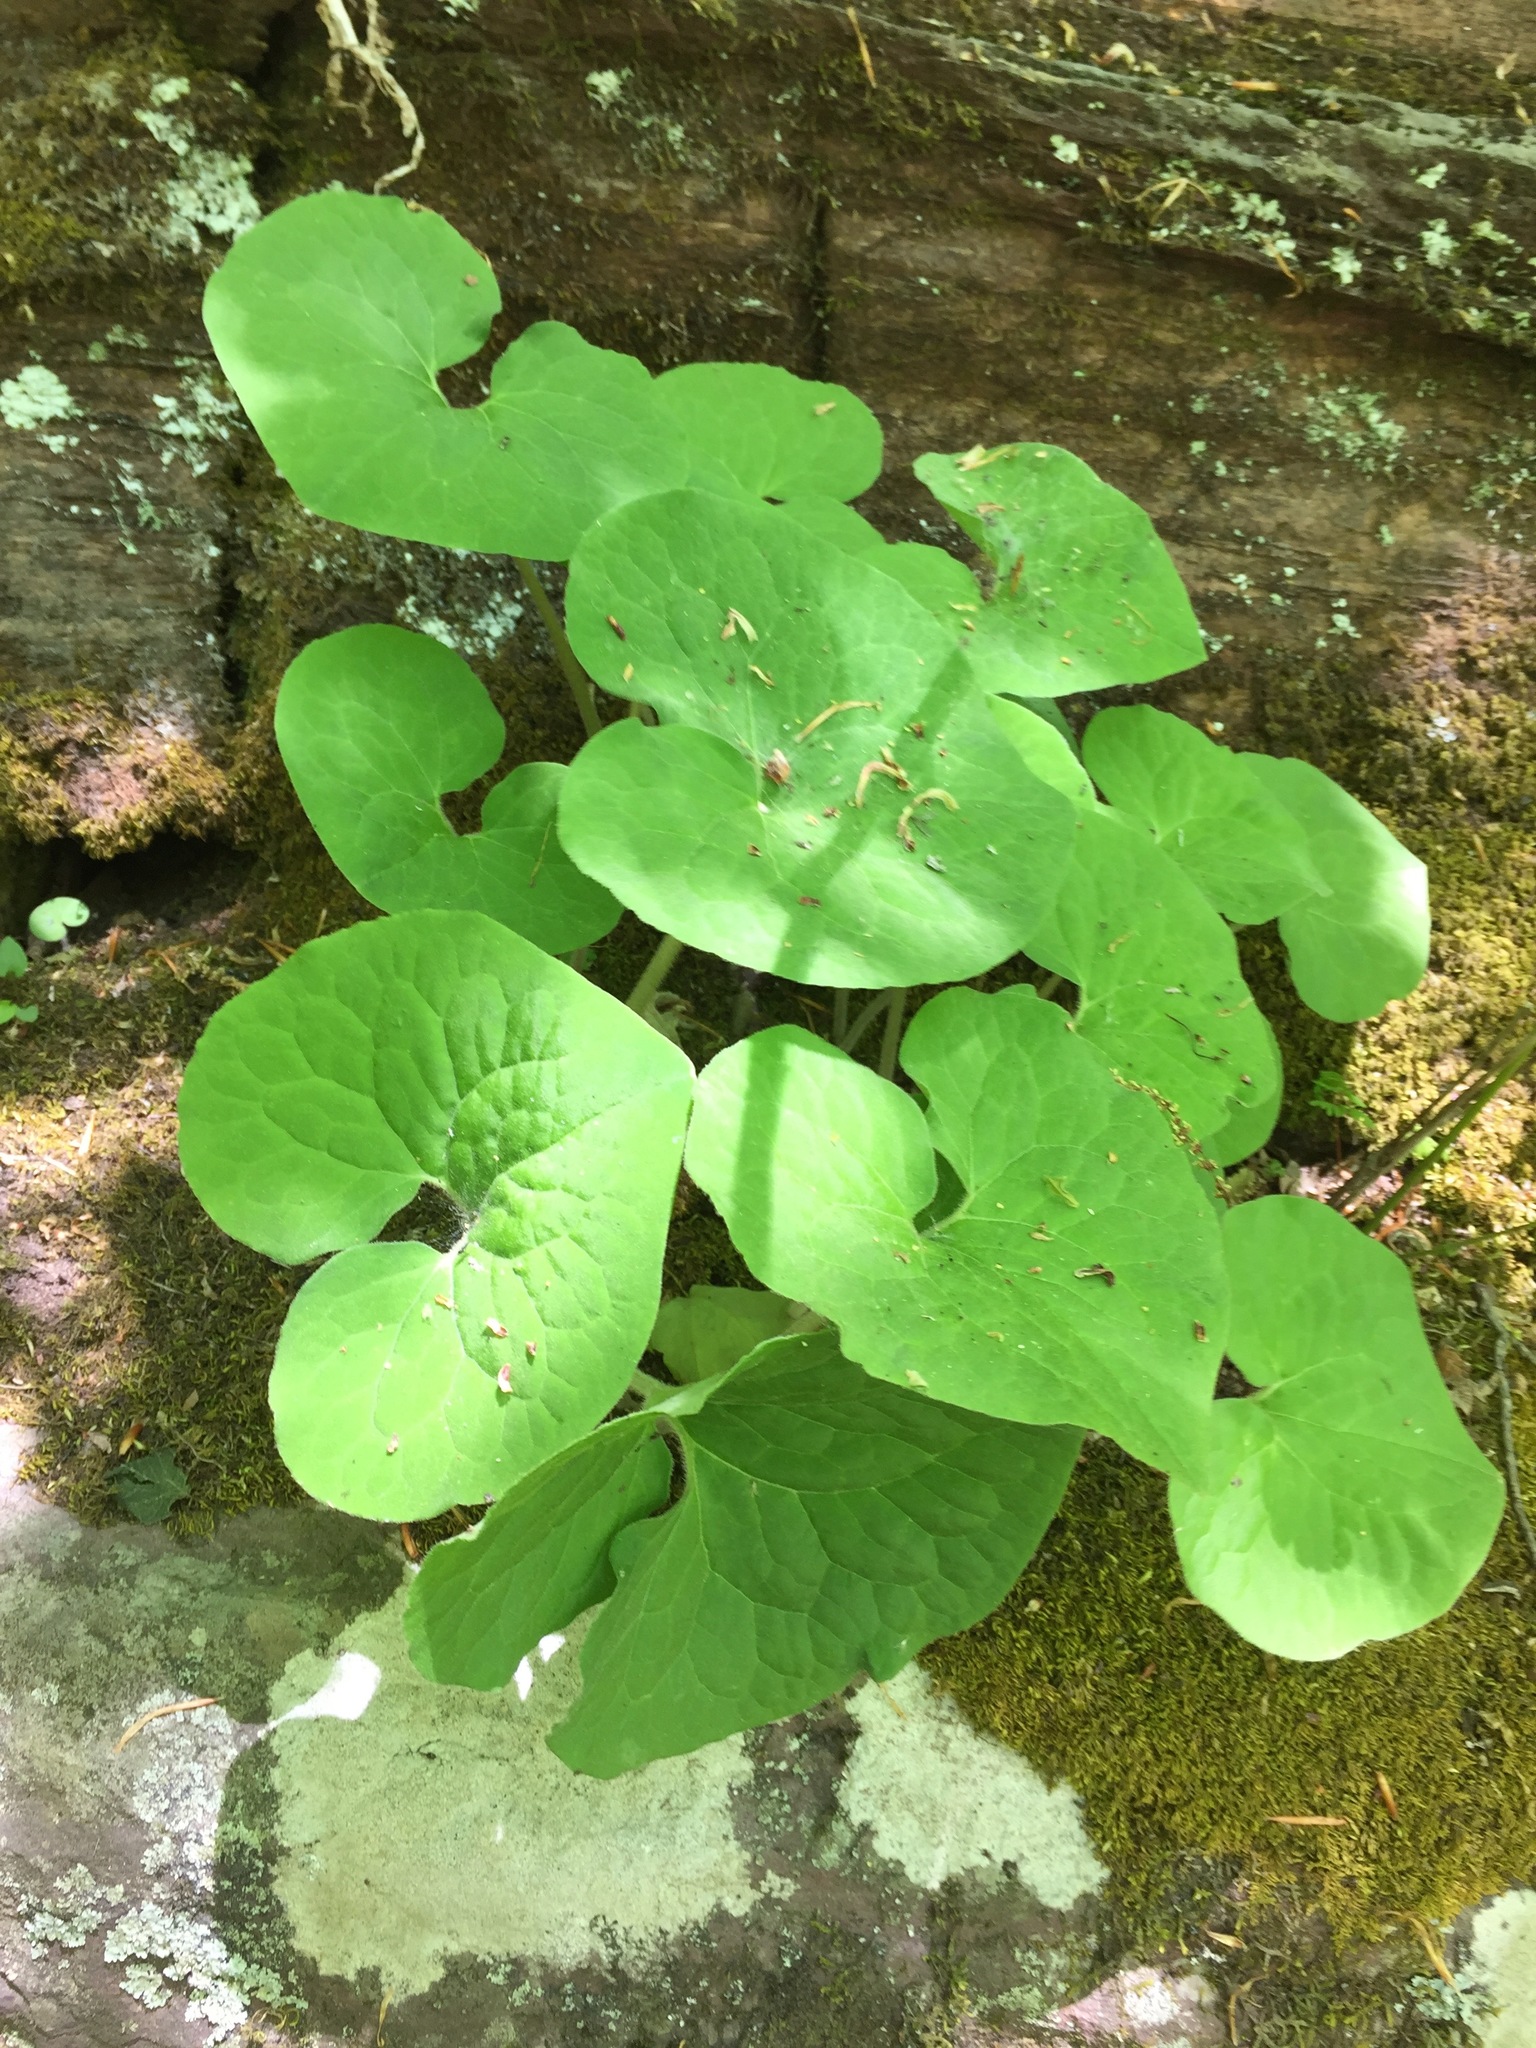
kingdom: Plantae
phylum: Tracheophyta
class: Magnoliopsida
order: Piperales
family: Aristolochiaceae
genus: Asarum
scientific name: Asarum canadense
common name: Wild ginger
